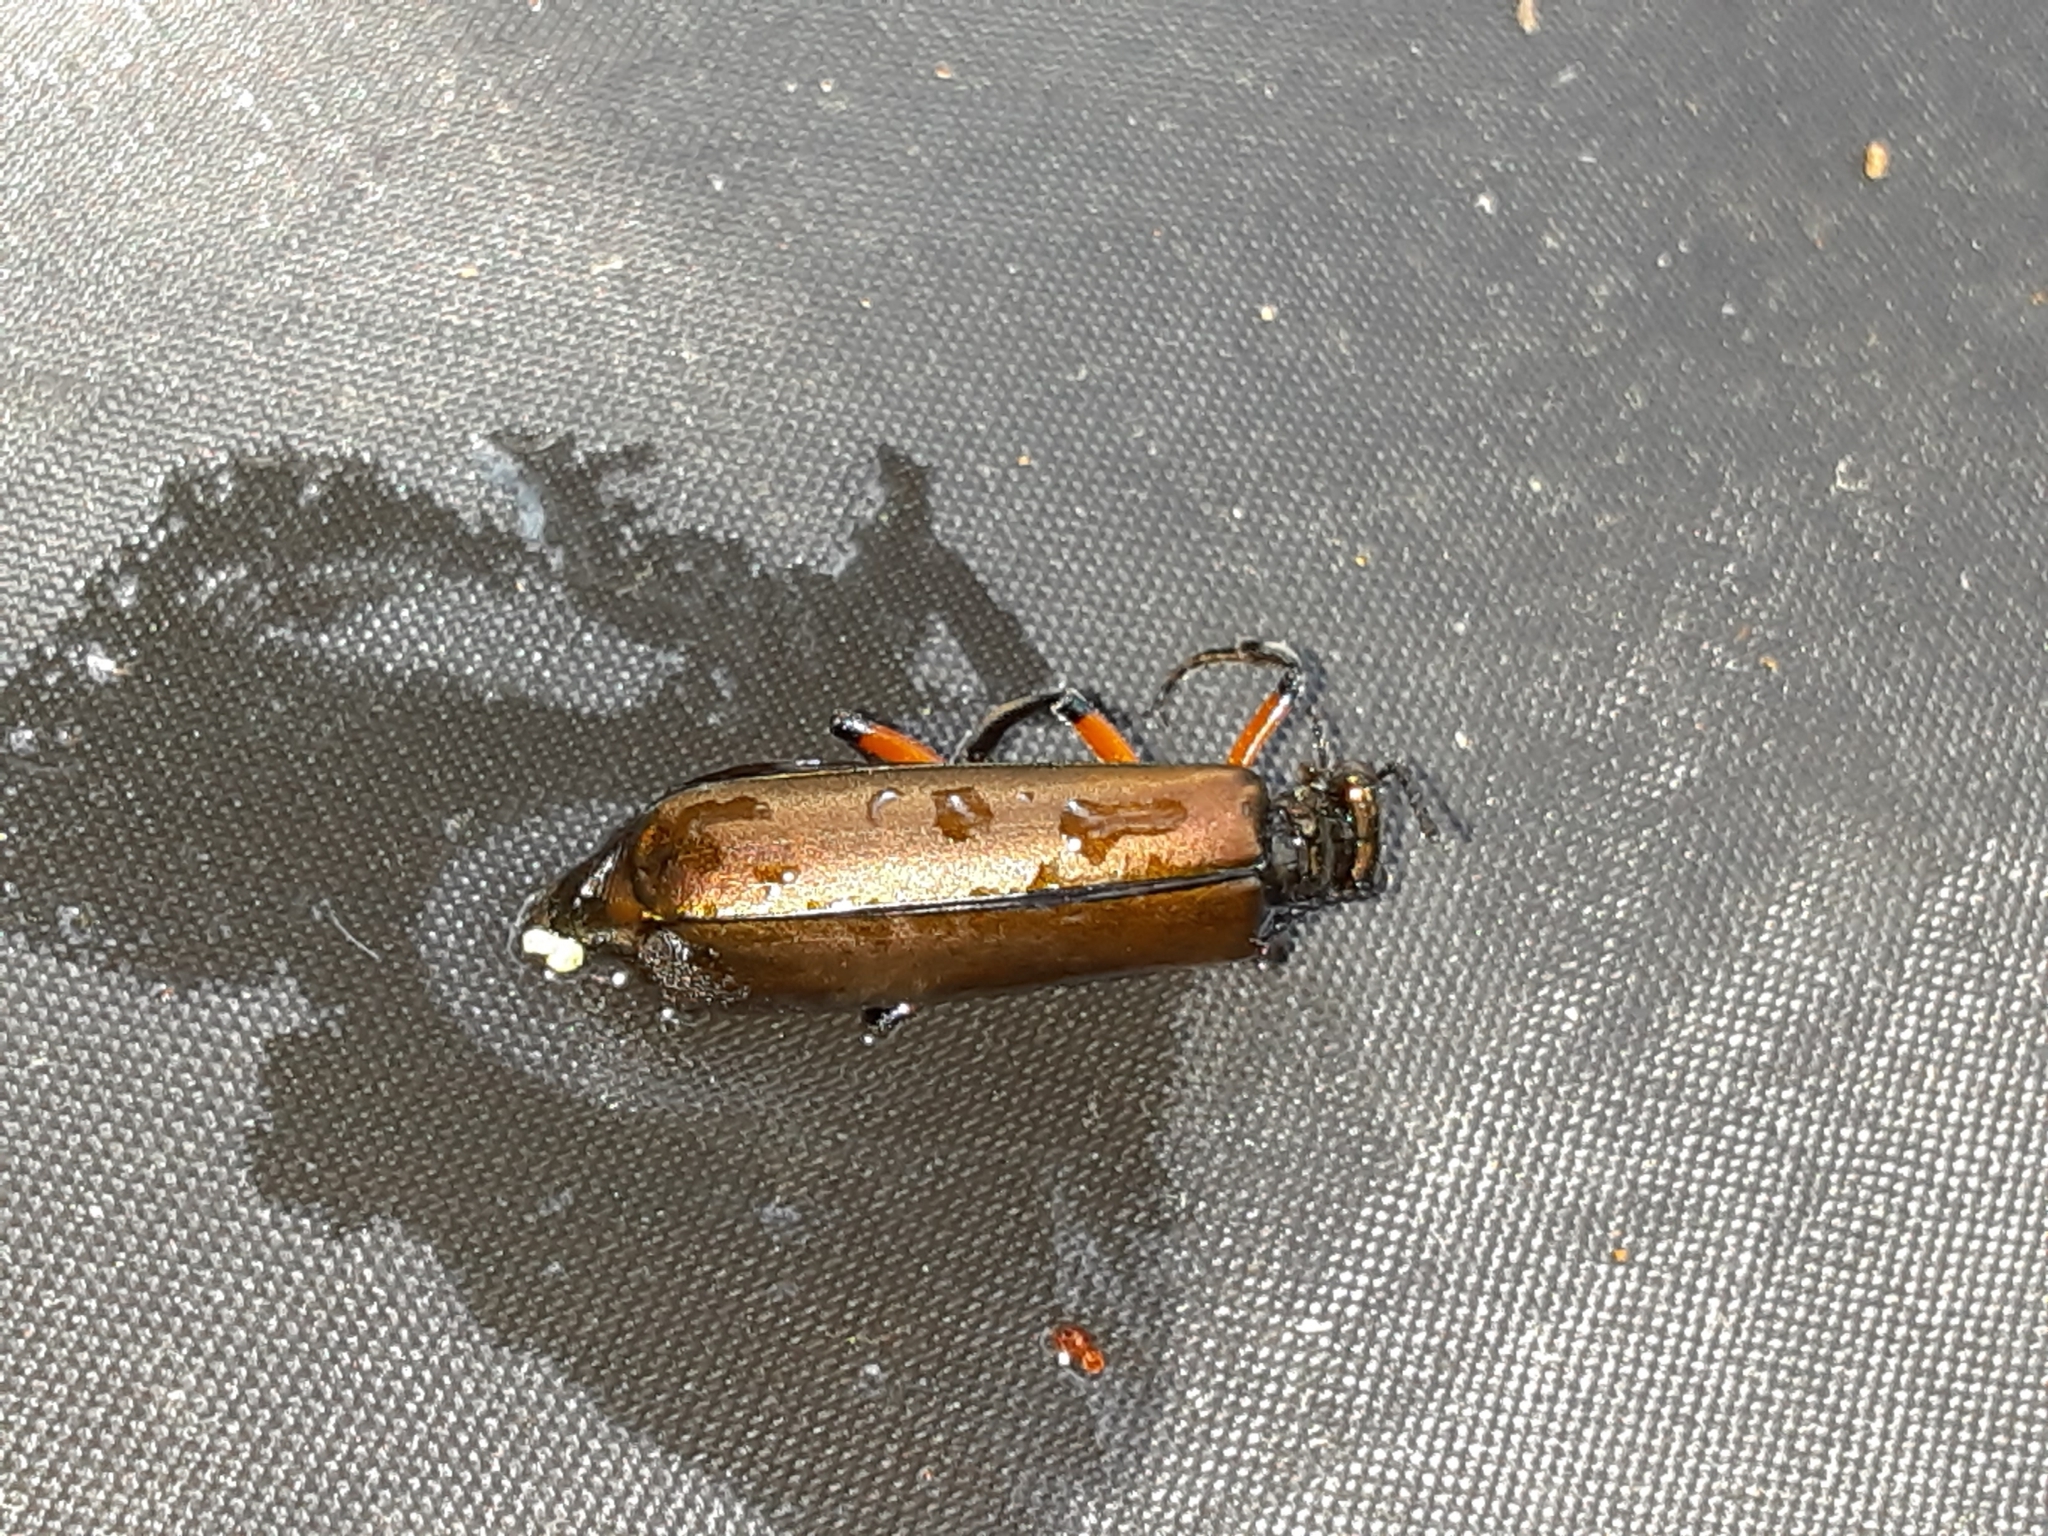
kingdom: Animalia
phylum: Arthropoda
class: Insecta
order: Coleoptera
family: Meloidae
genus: Lytta
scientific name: Lytta polita
